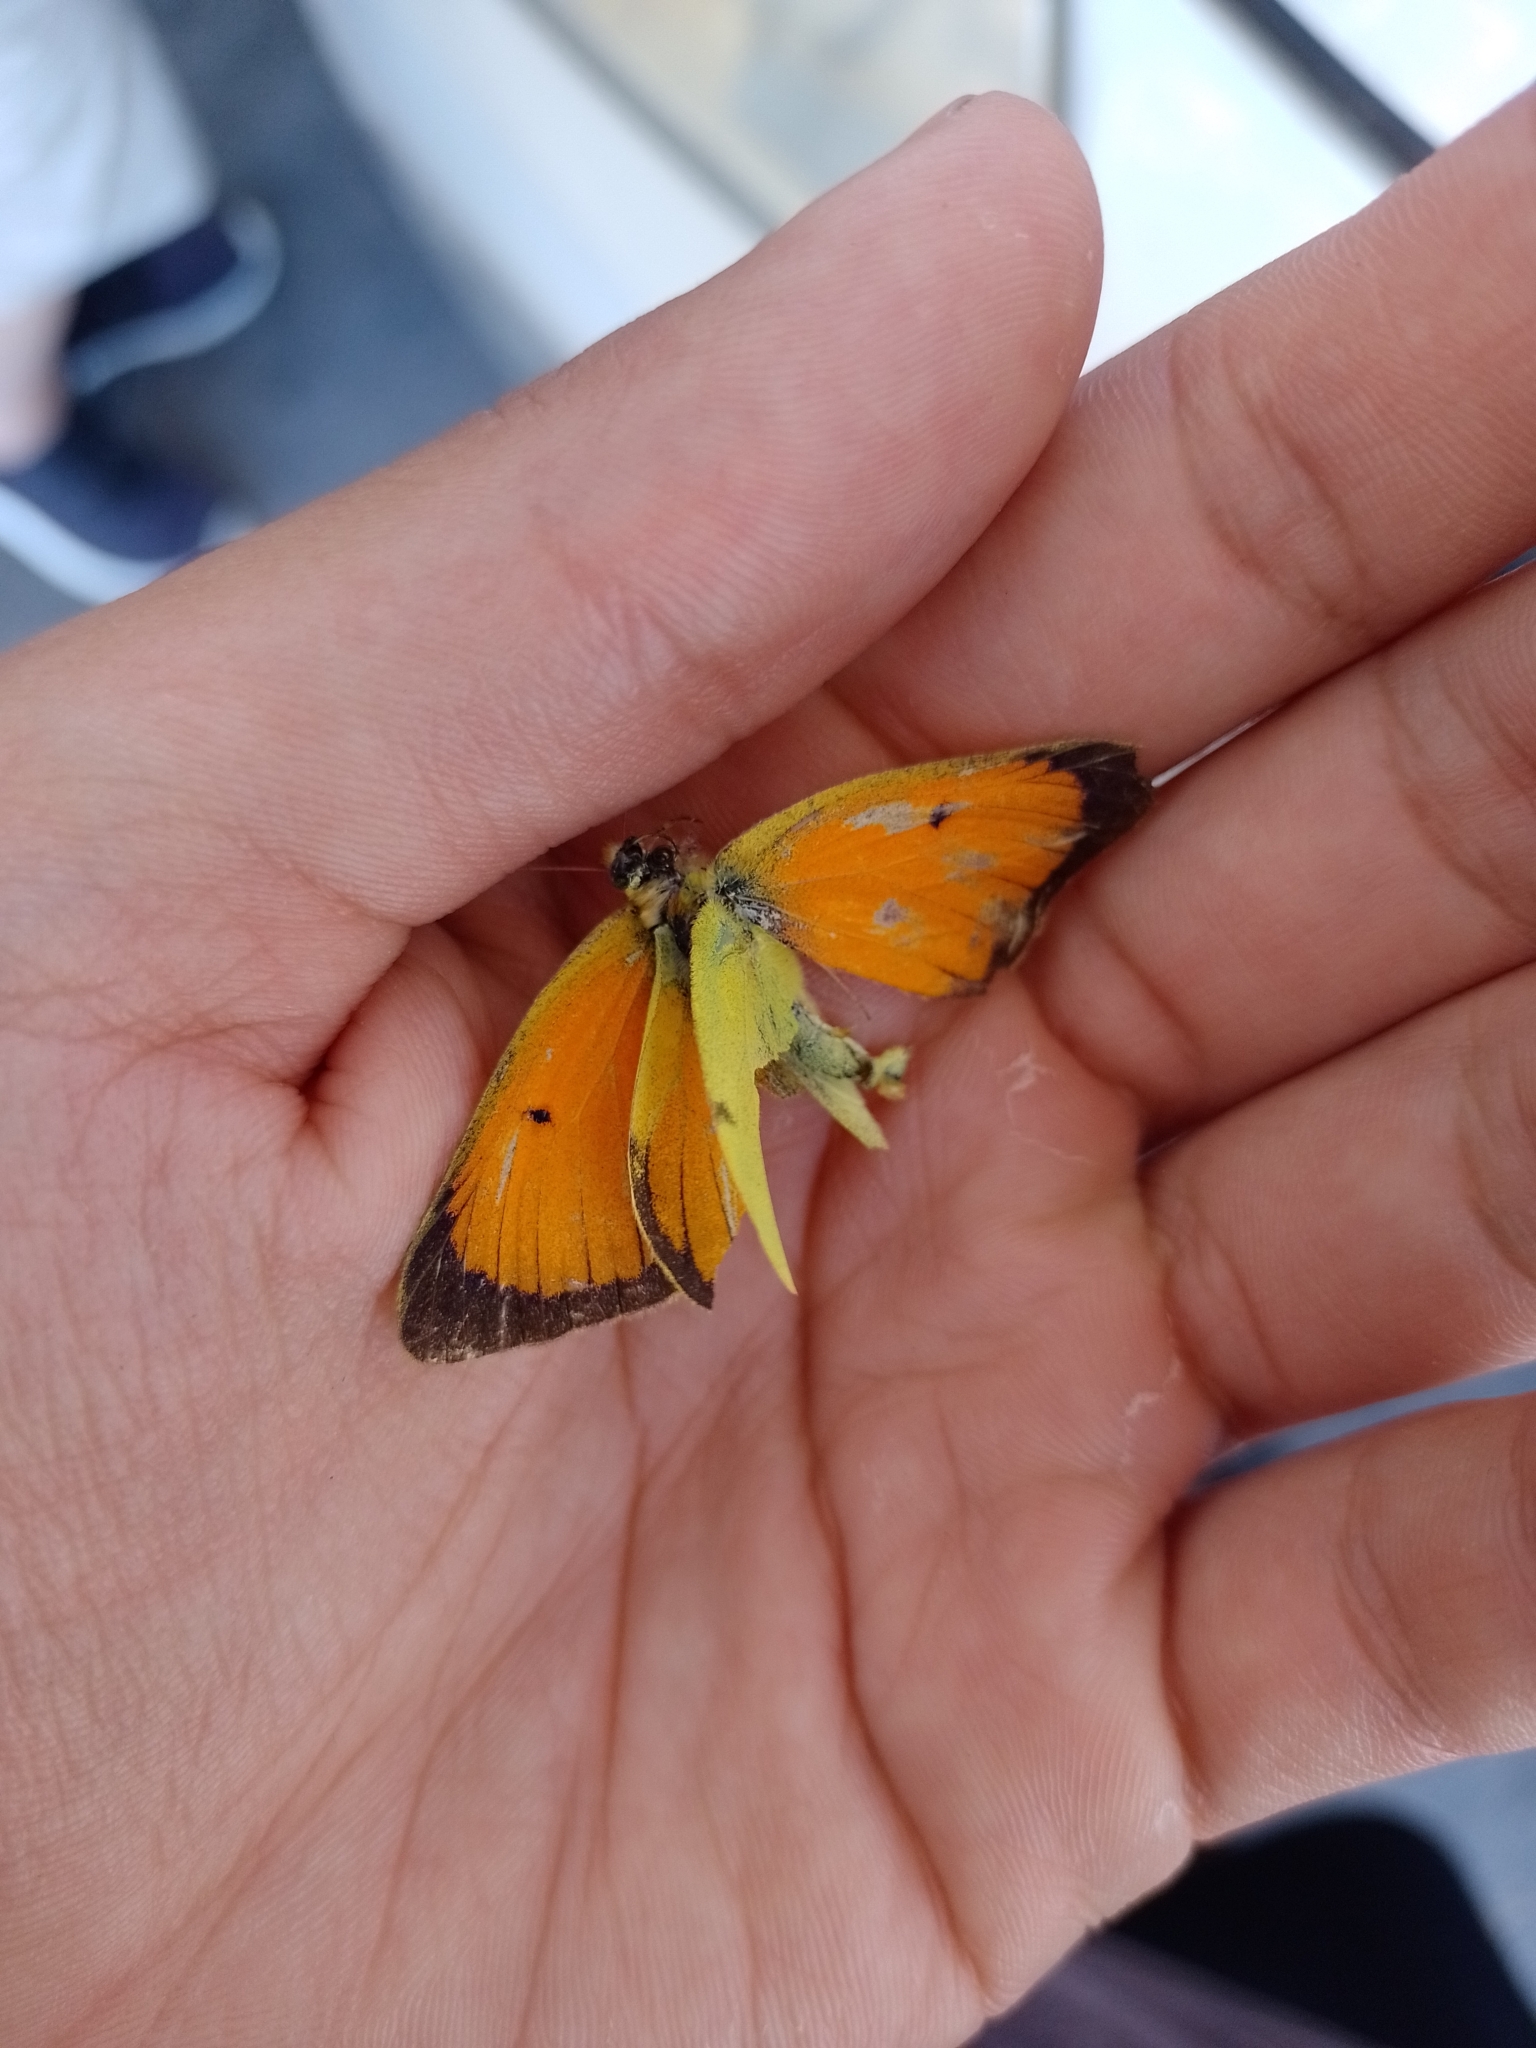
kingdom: Animalia
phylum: Arthropoda
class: Insecta
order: Lepidoptera
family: Pieridae
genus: Colias
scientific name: Colias lesbia
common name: Lesbia clouded yellow
